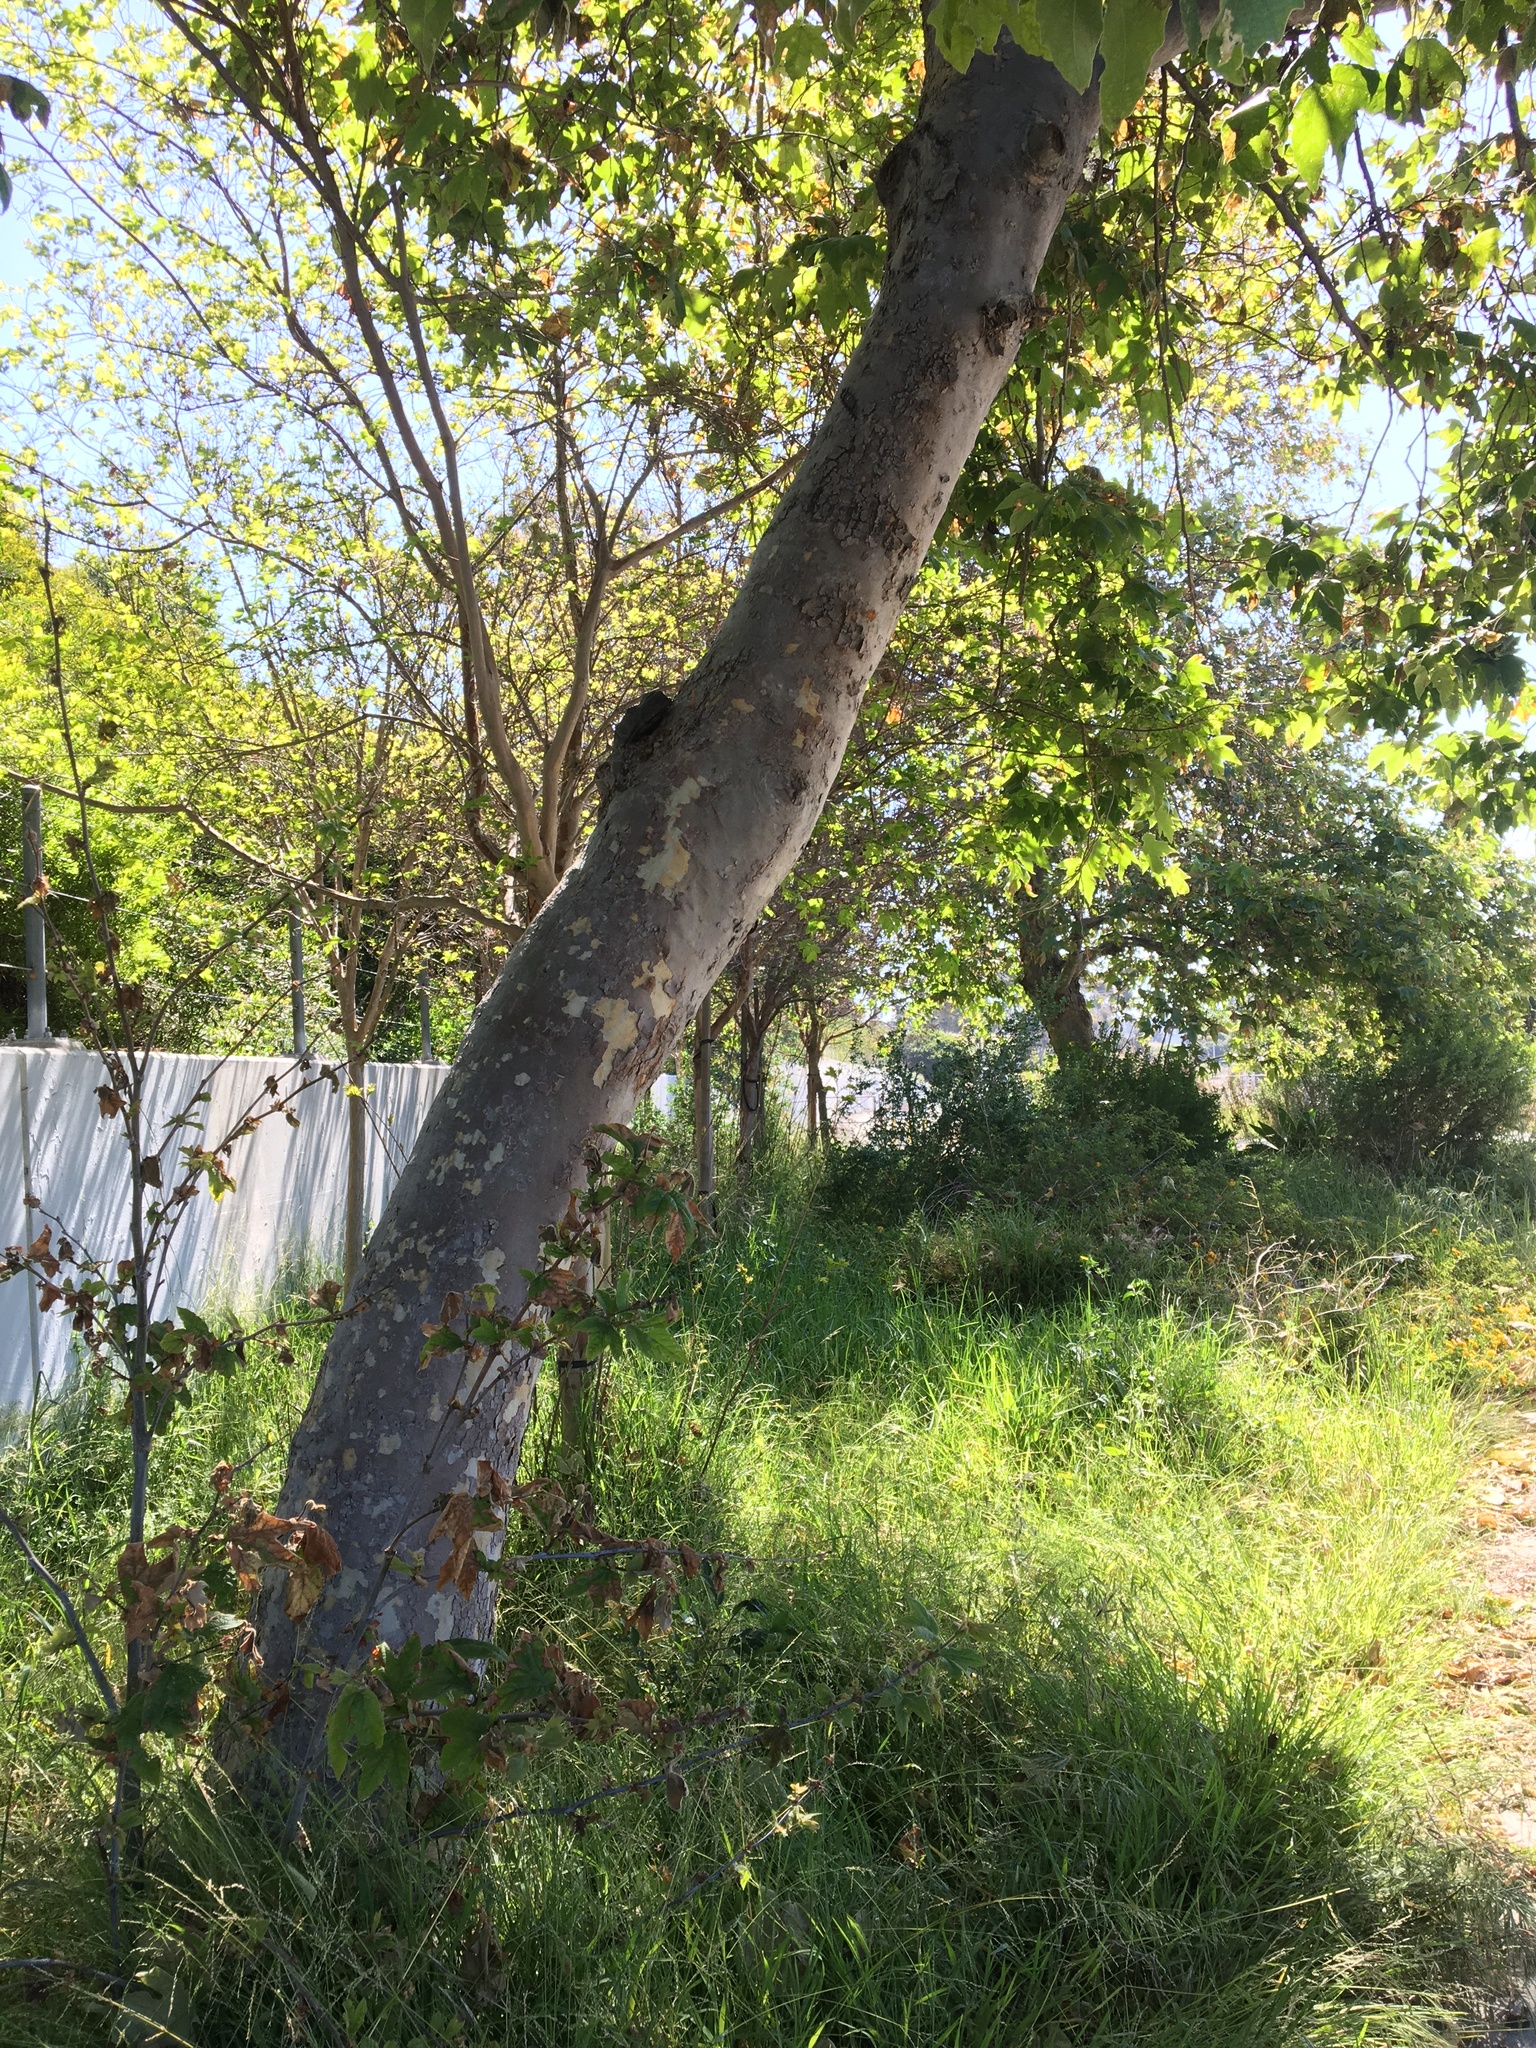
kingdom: Plantae
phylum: Tracheophyta
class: Magnoliopsida
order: Proteales
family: Platanaceae
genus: Platanus
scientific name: Platanus racemosa
